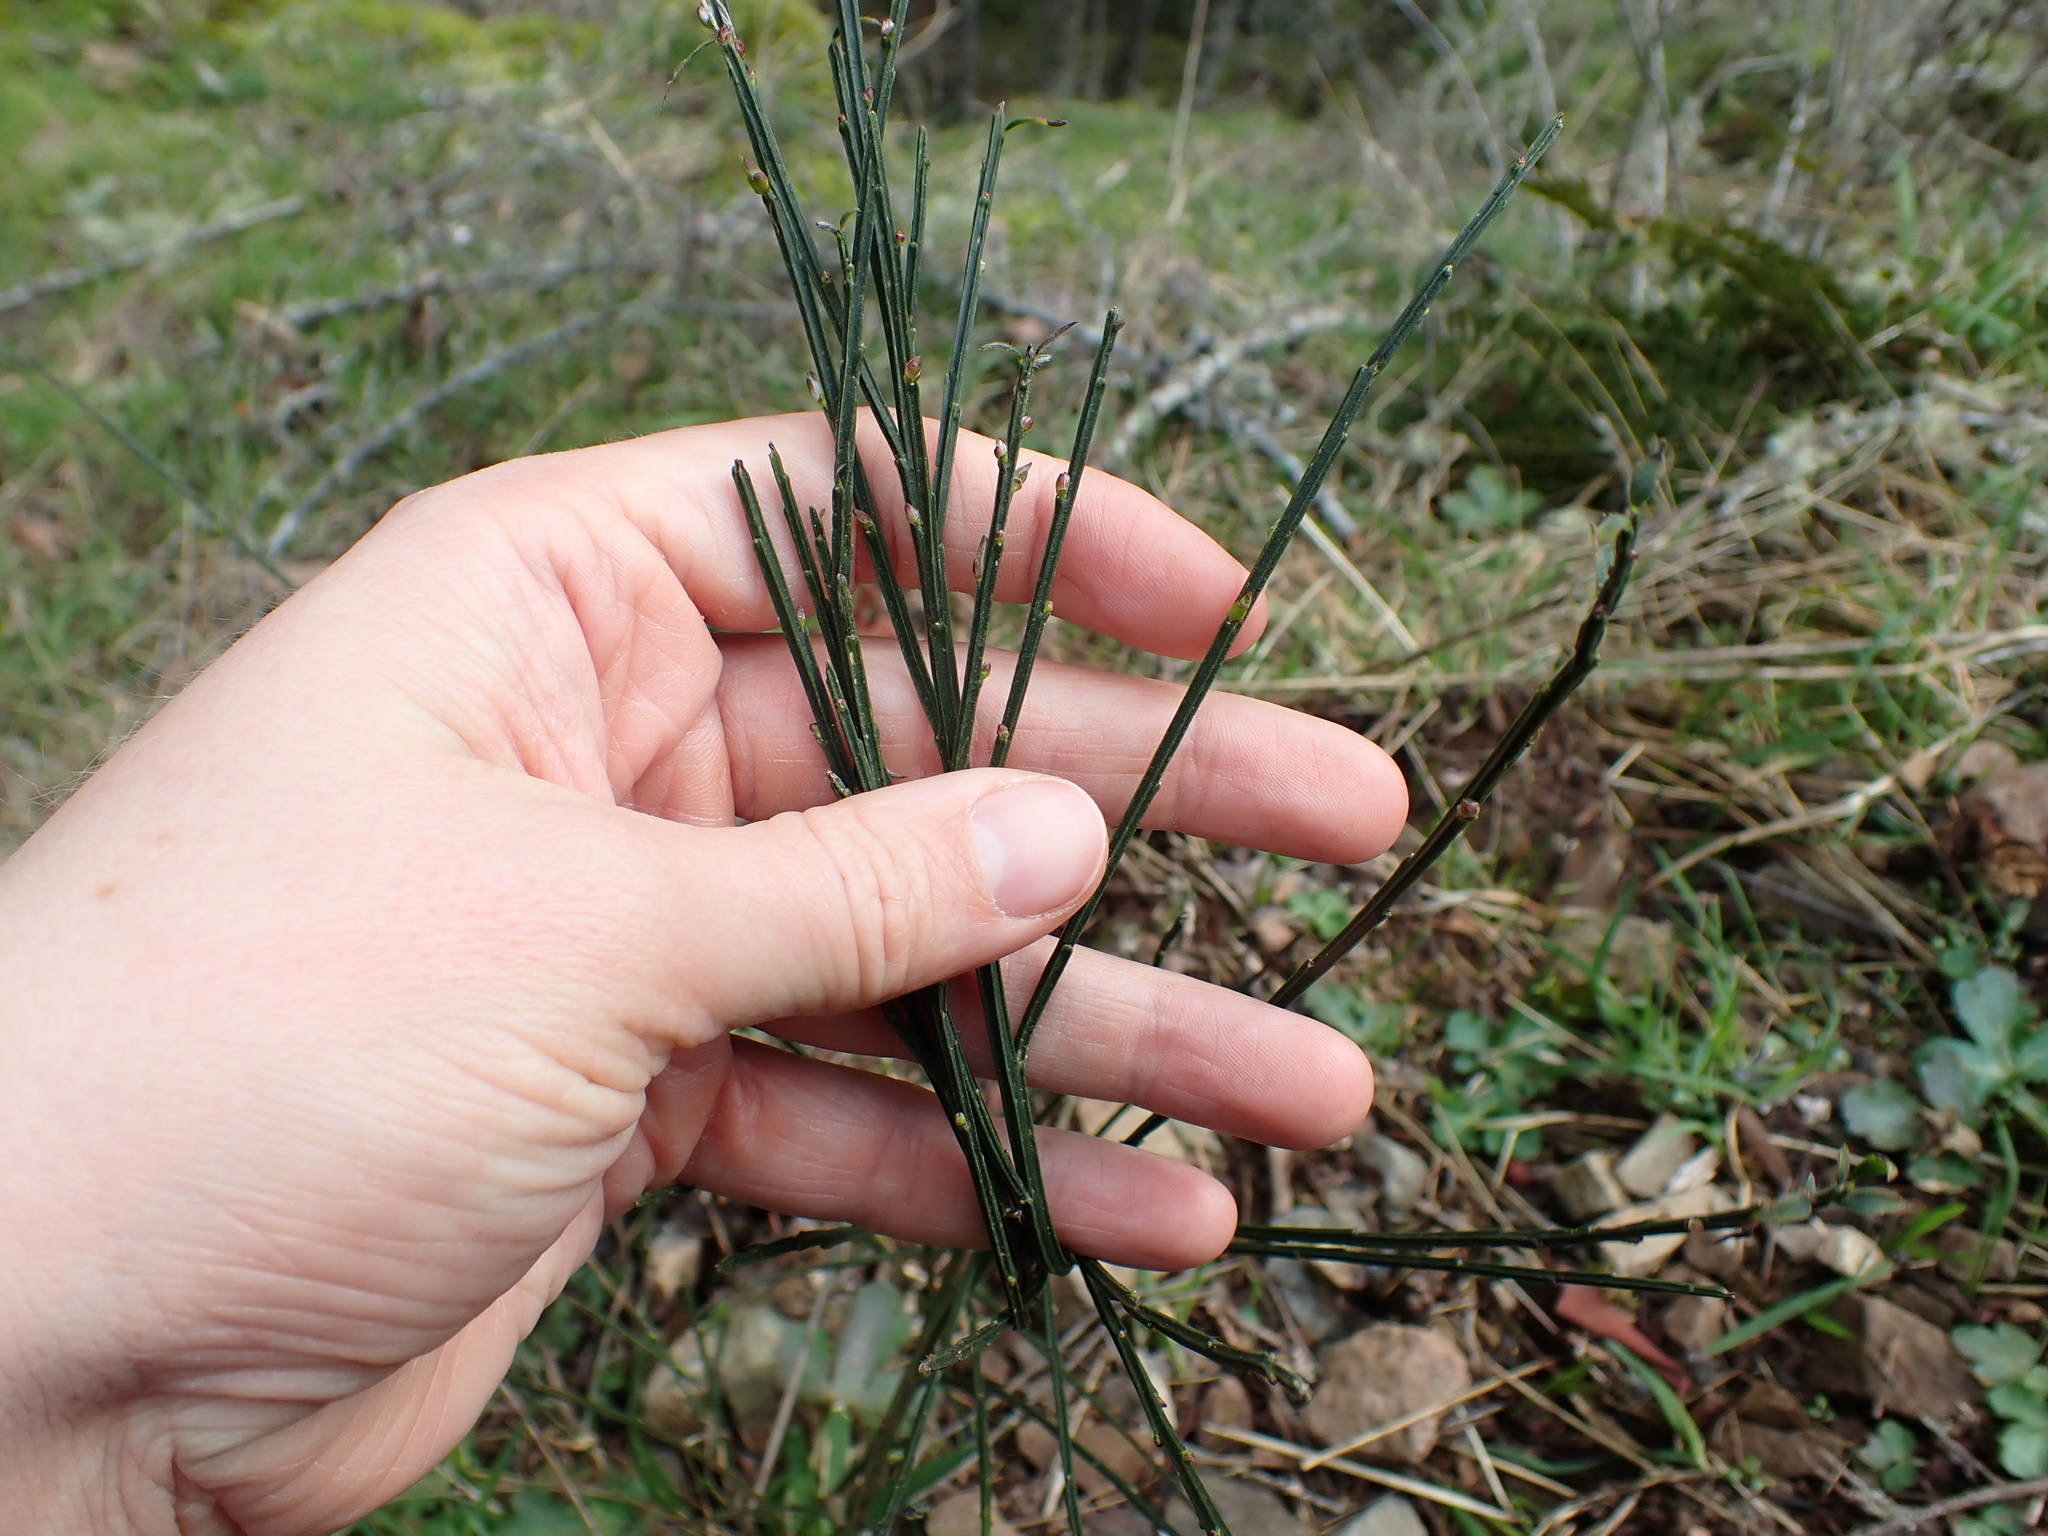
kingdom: Plantae
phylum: Tracheophyta
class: Magnoliopsida
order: Fabales
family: Fabaceae
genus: Cytisus
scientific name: Cytisus scoparius
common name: Scotch broom
